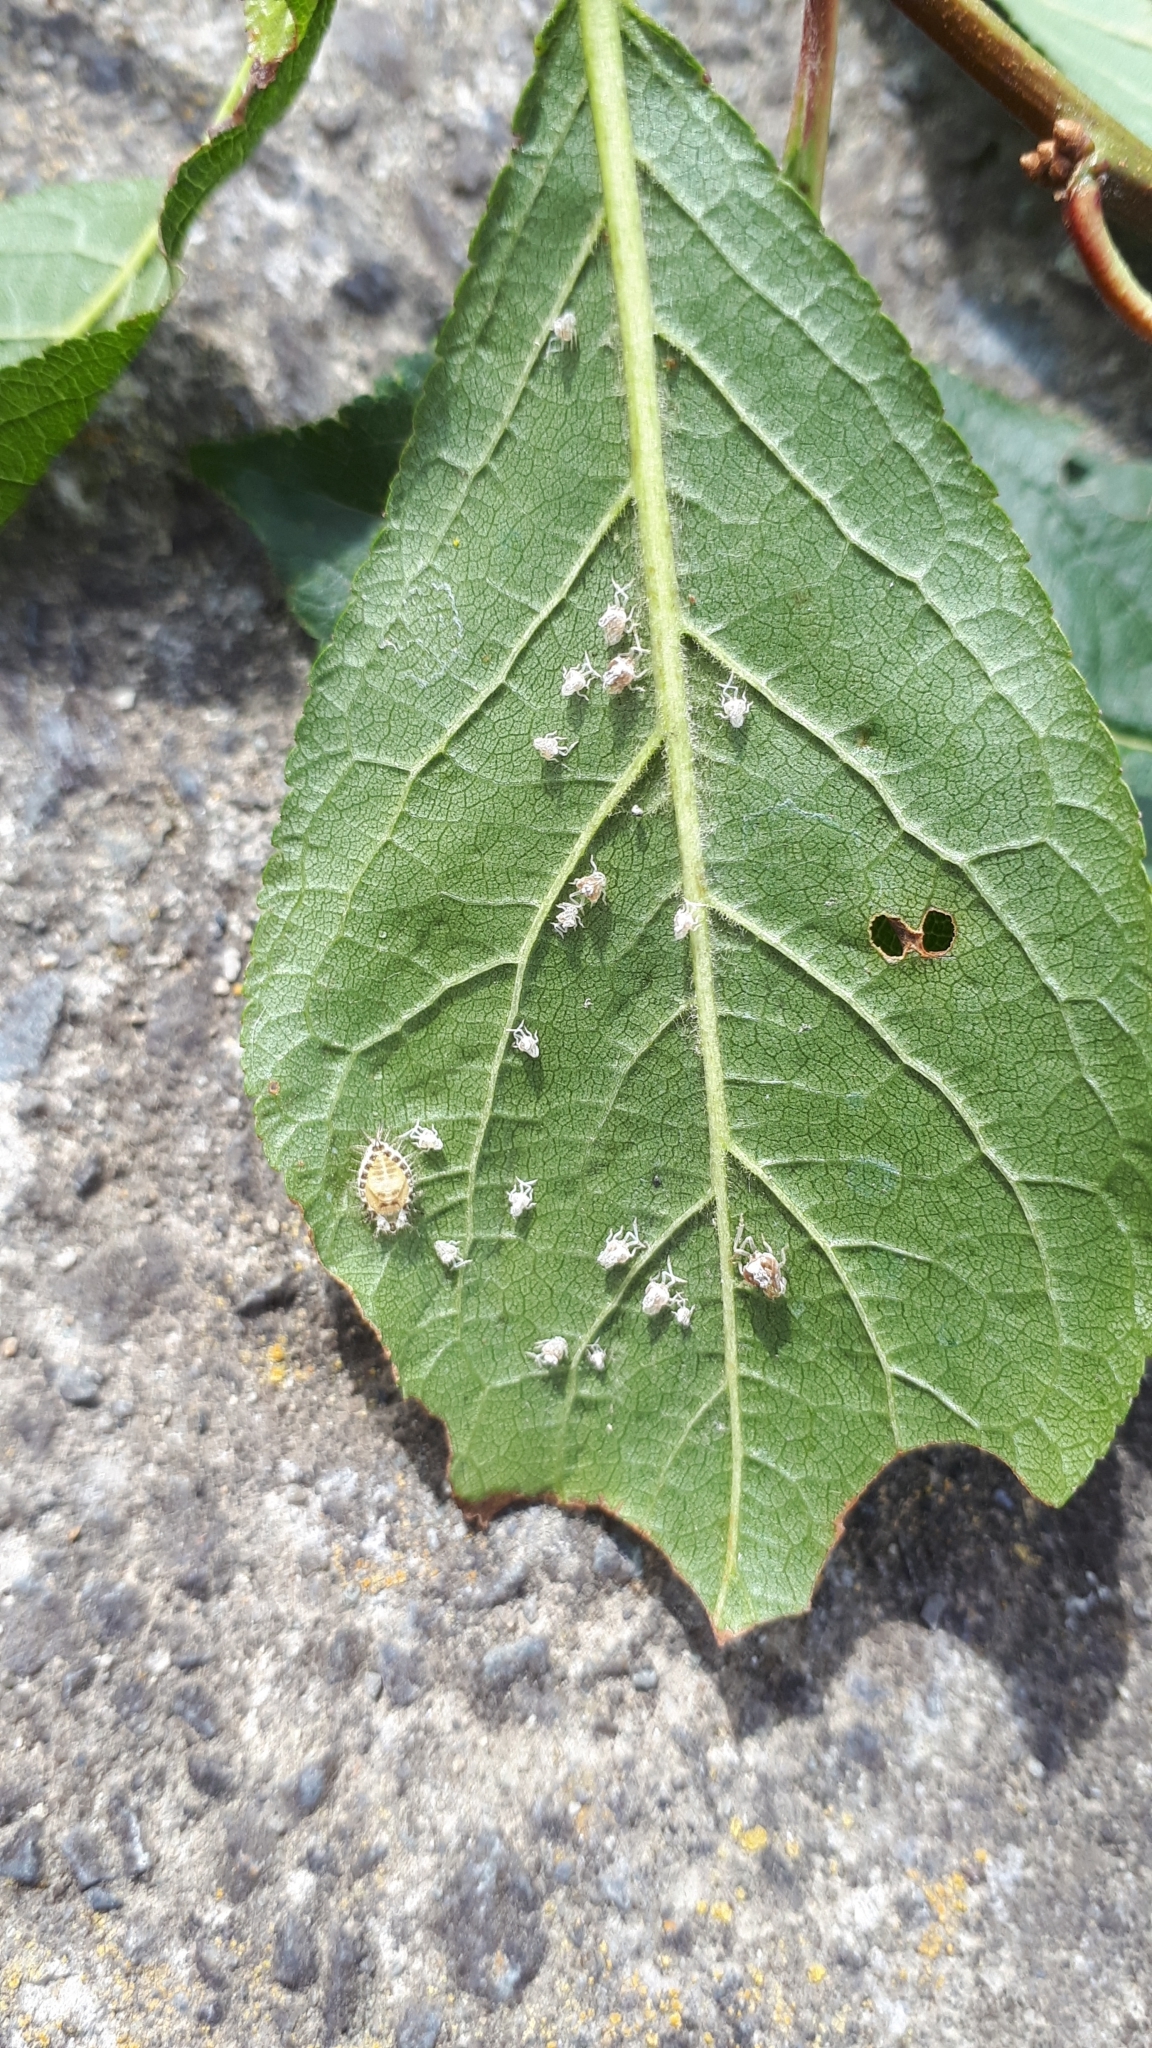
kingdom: Animalia
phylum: Arthropoda
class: Insecta
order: Coleoptera
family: Coccinellidae
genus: Halmus
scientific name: Halmus chalybeus
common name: Steel blue ladybird beetle
